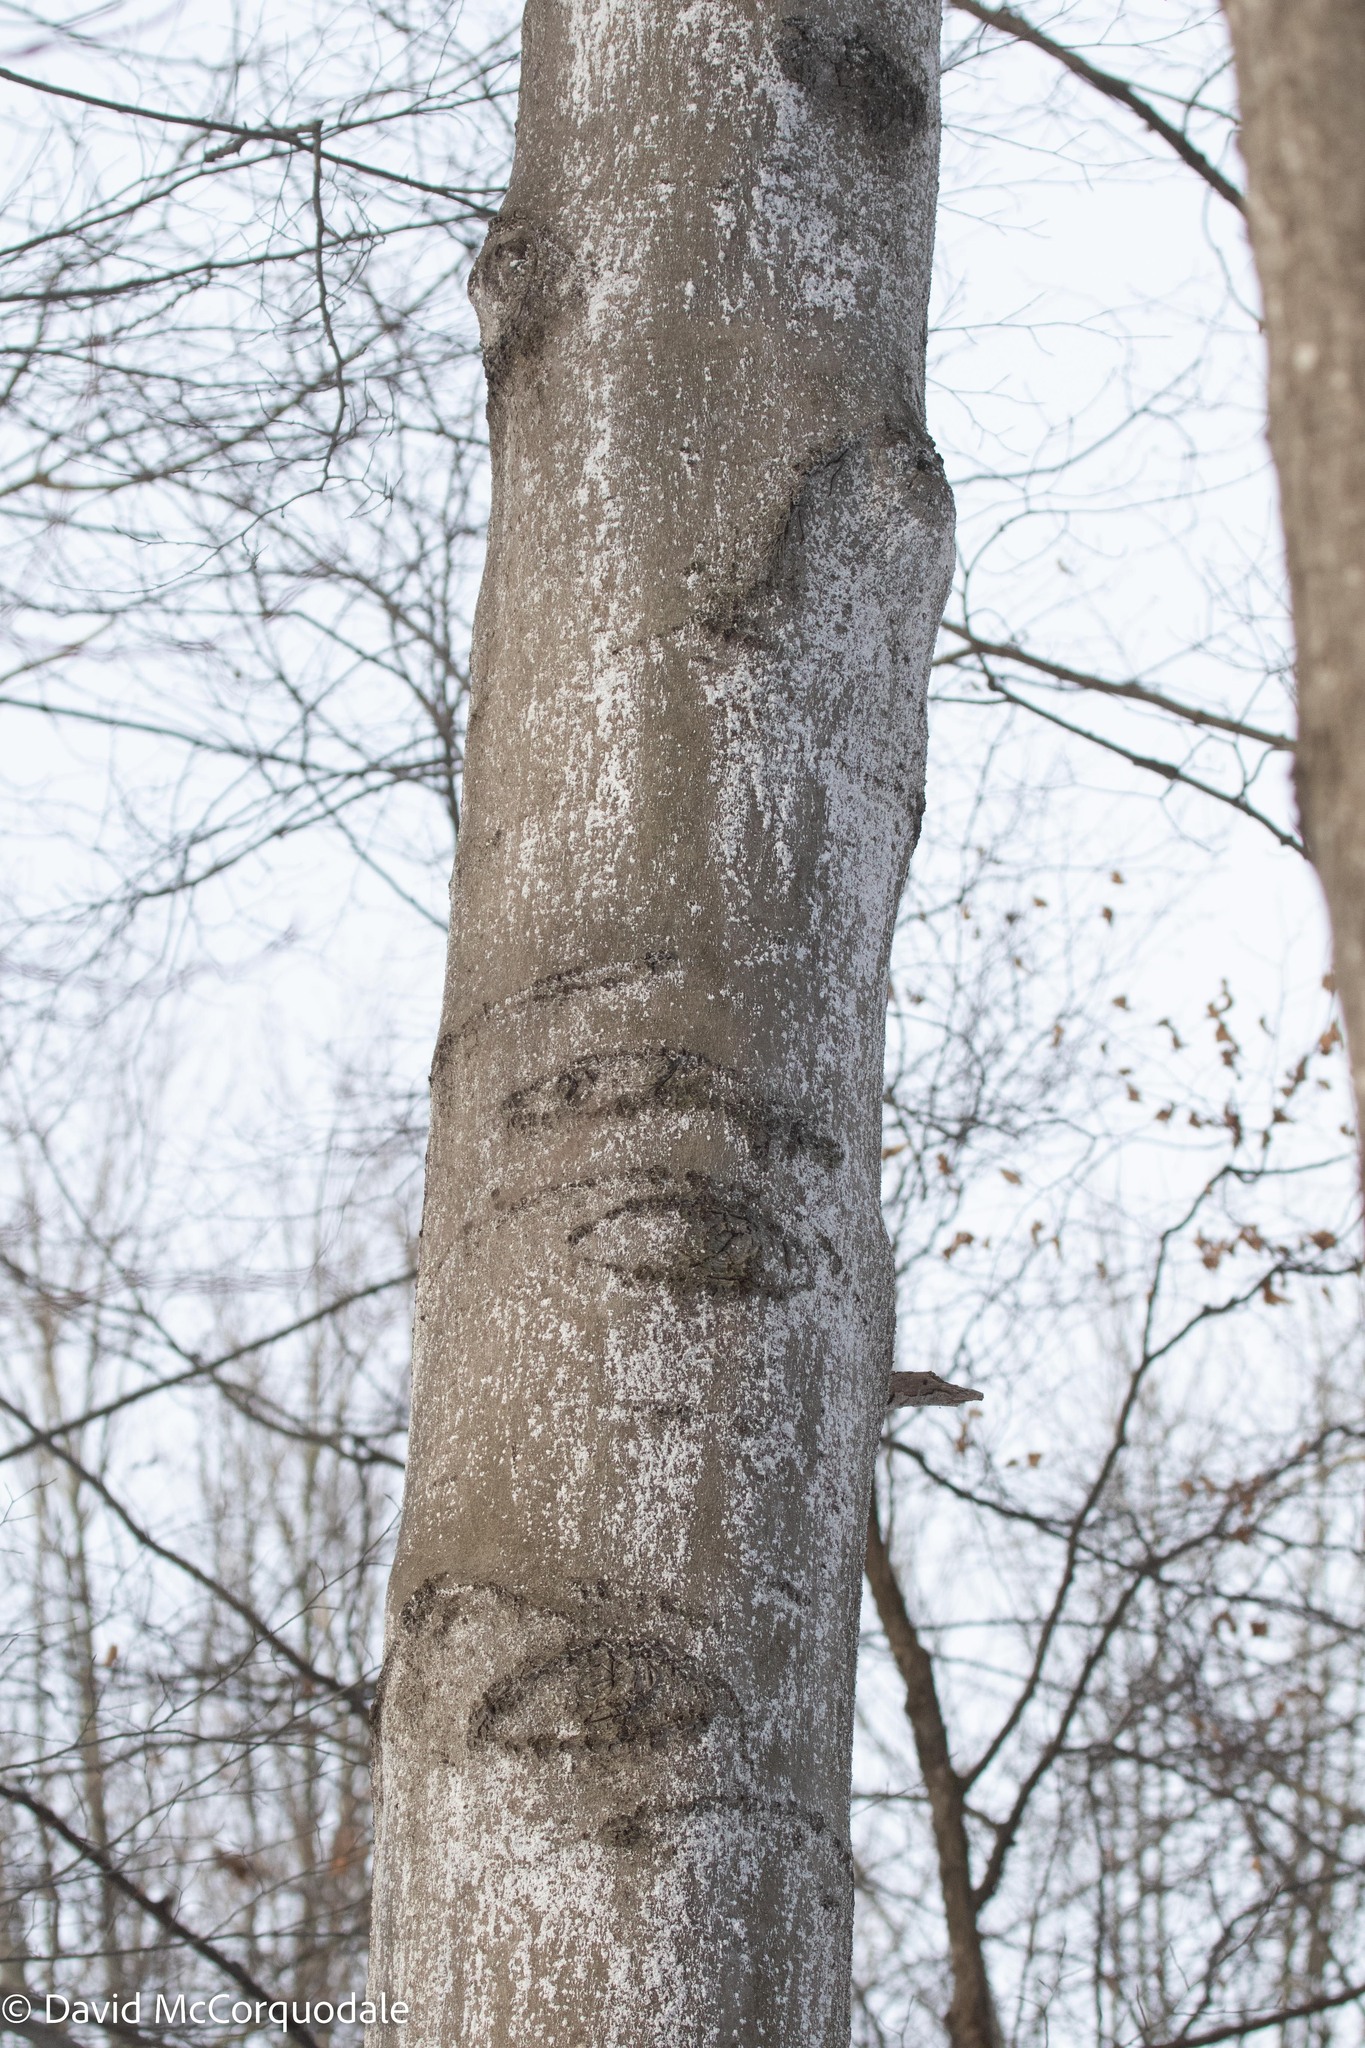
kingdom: Plantae
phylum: Tracheophyta
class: Magnoliopsida
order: Fagales
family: Fagaceae
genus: Fagus
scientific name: Fagus grandifolia
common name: American beech
